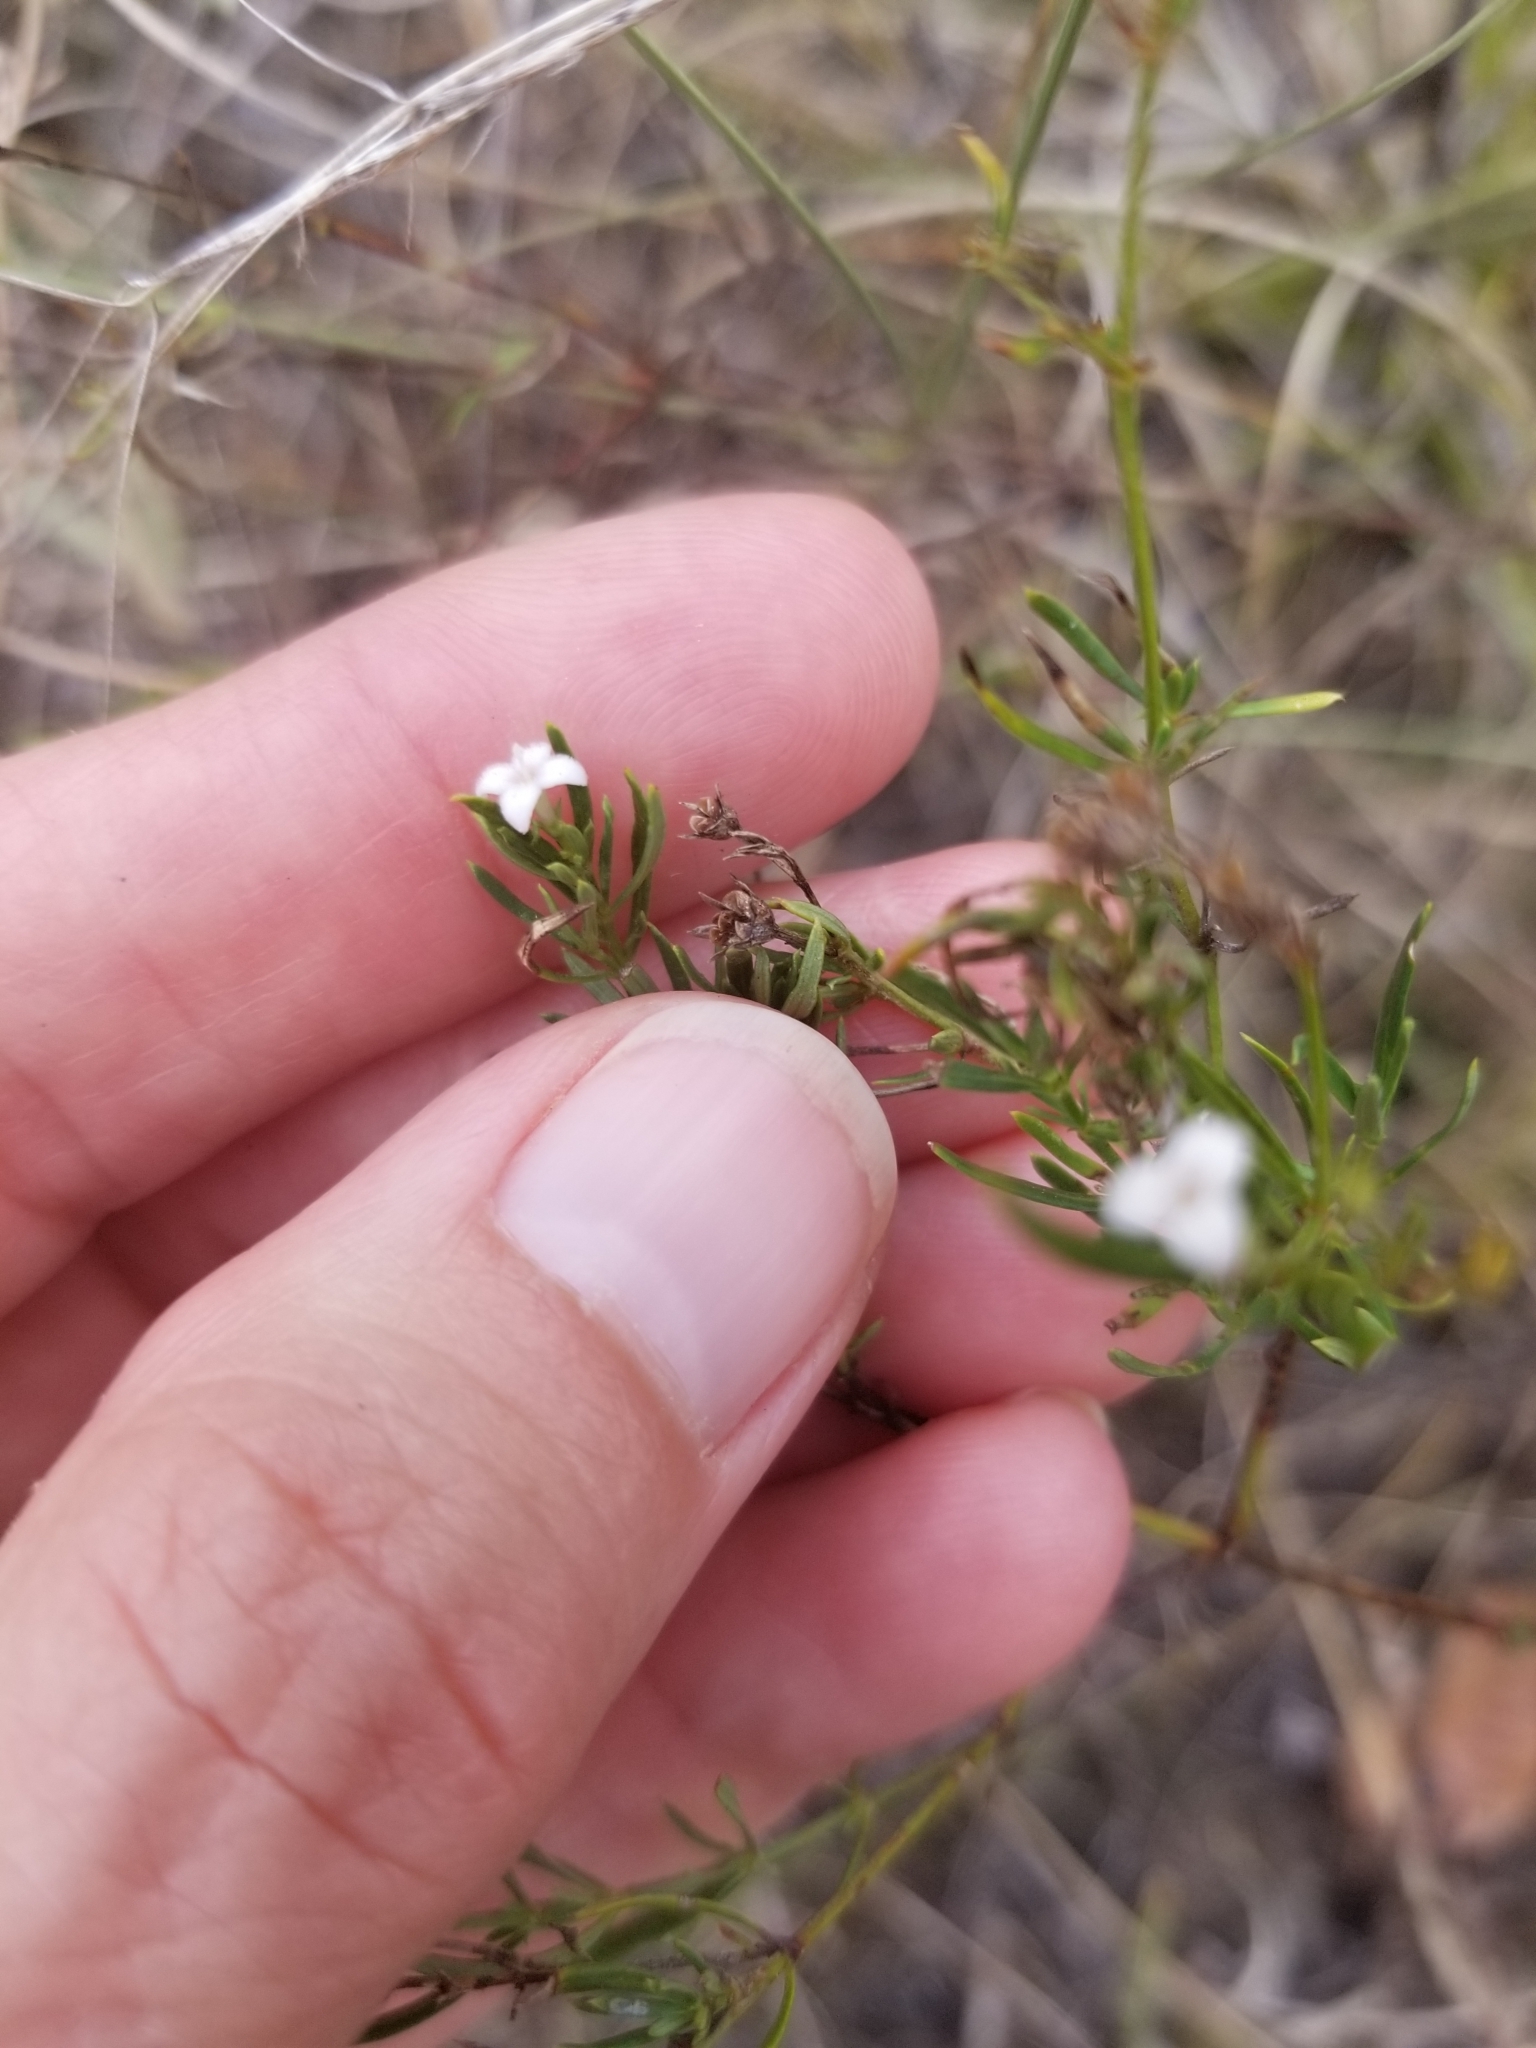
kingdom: Plantae
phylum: Tracheophyta
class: Magnoliopsida
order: Gentianales
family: Rubiaceae
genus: Stenaria
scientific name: Stenaria nigricans
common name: Diamondflowers
